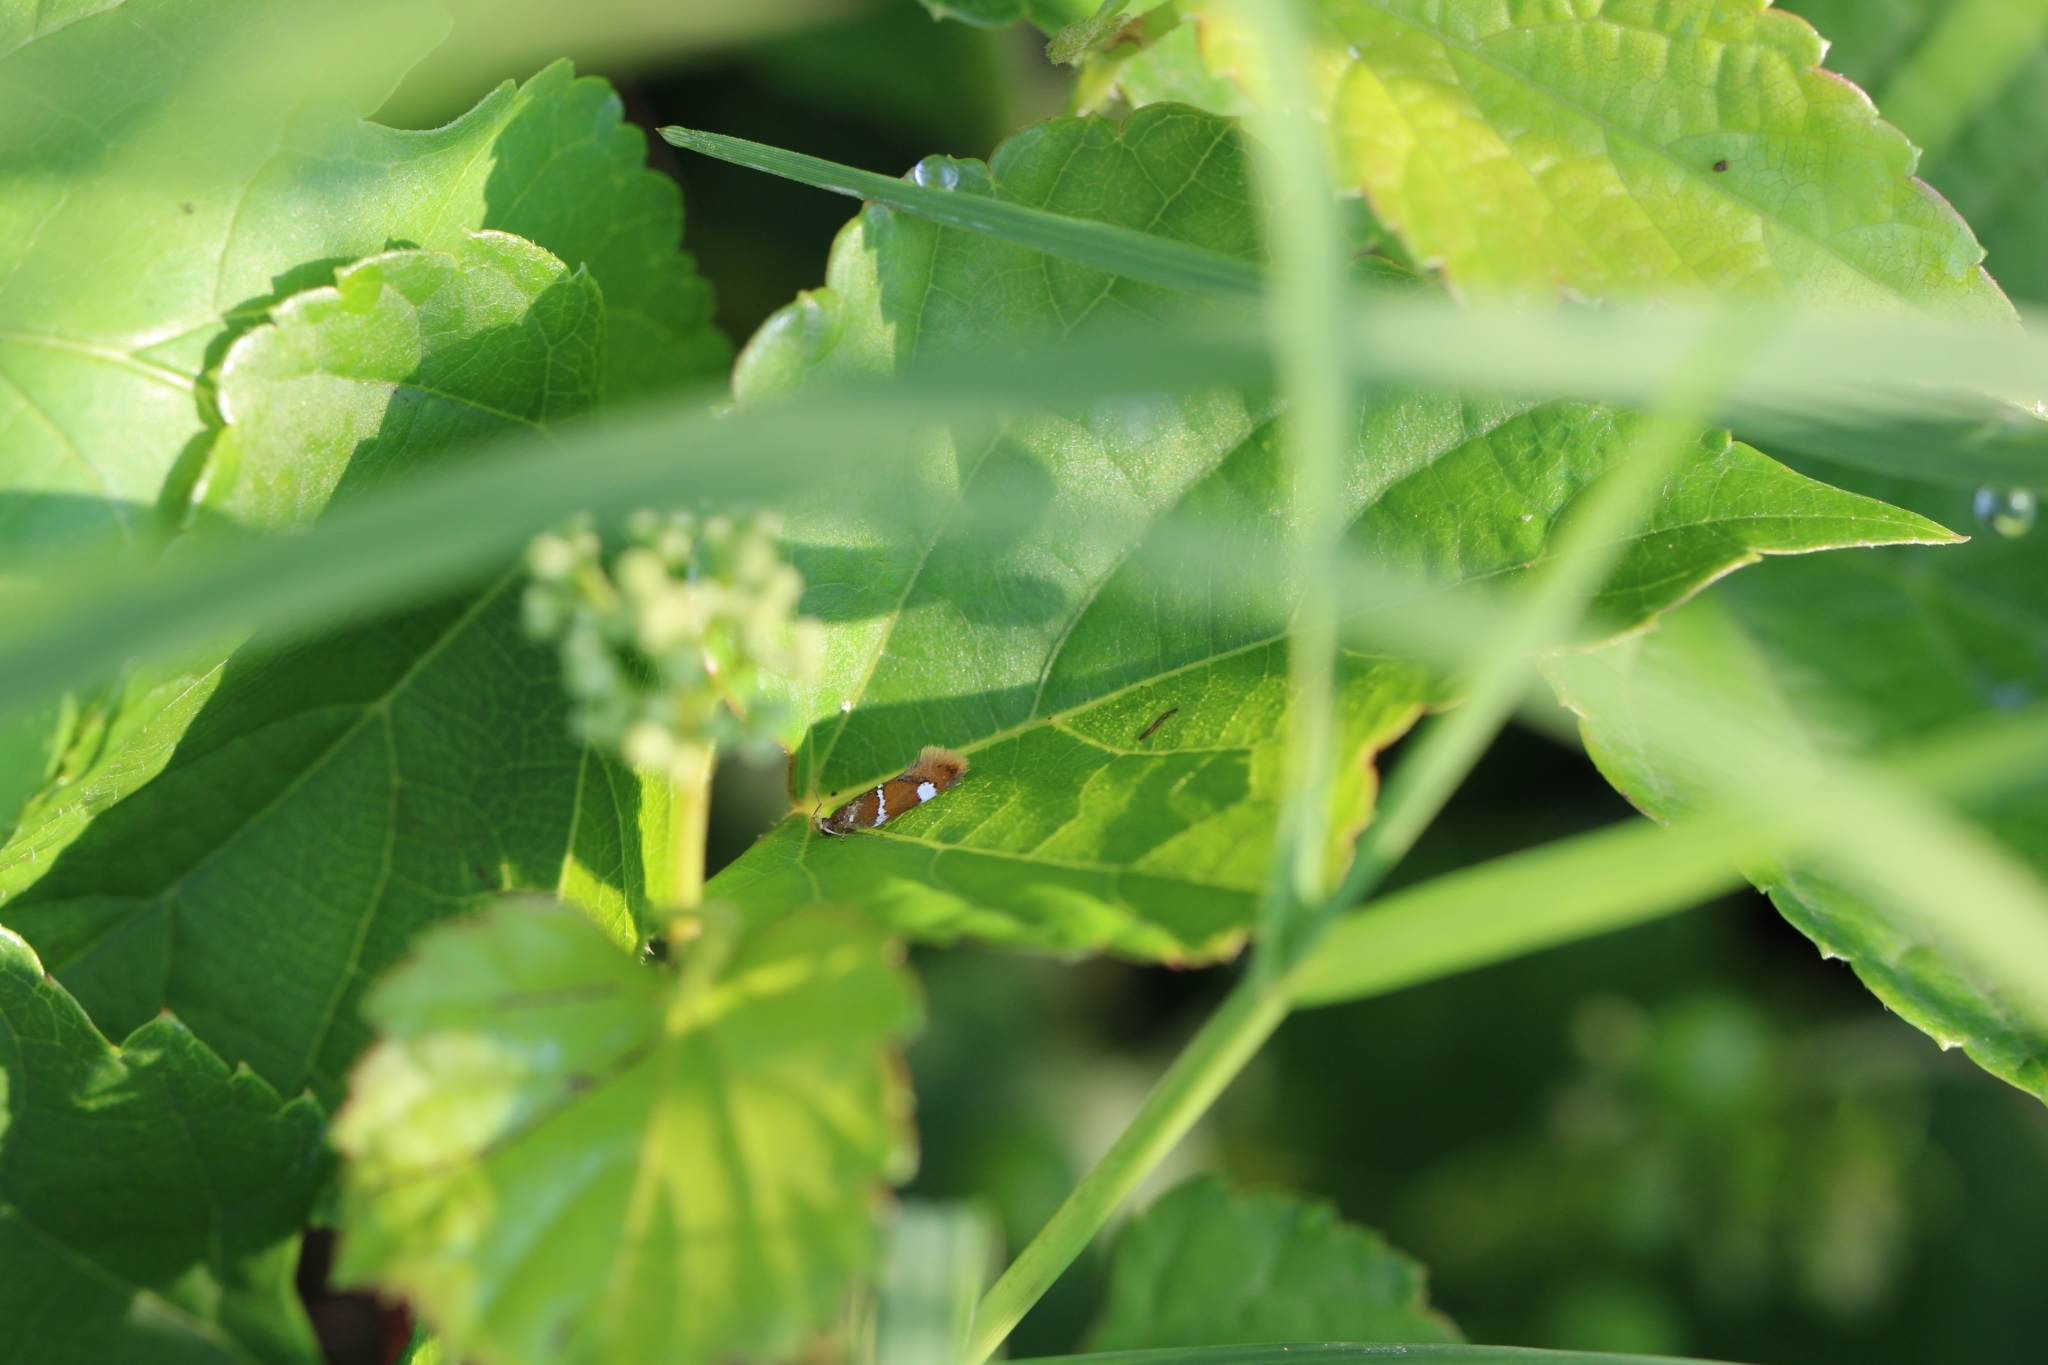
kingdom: Animalia
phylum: Arthropoda
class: Insecta
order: Lepidoptera
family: Oecophoridae
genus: Promalactis
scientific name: Promalactis suzukiella
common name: Moth
